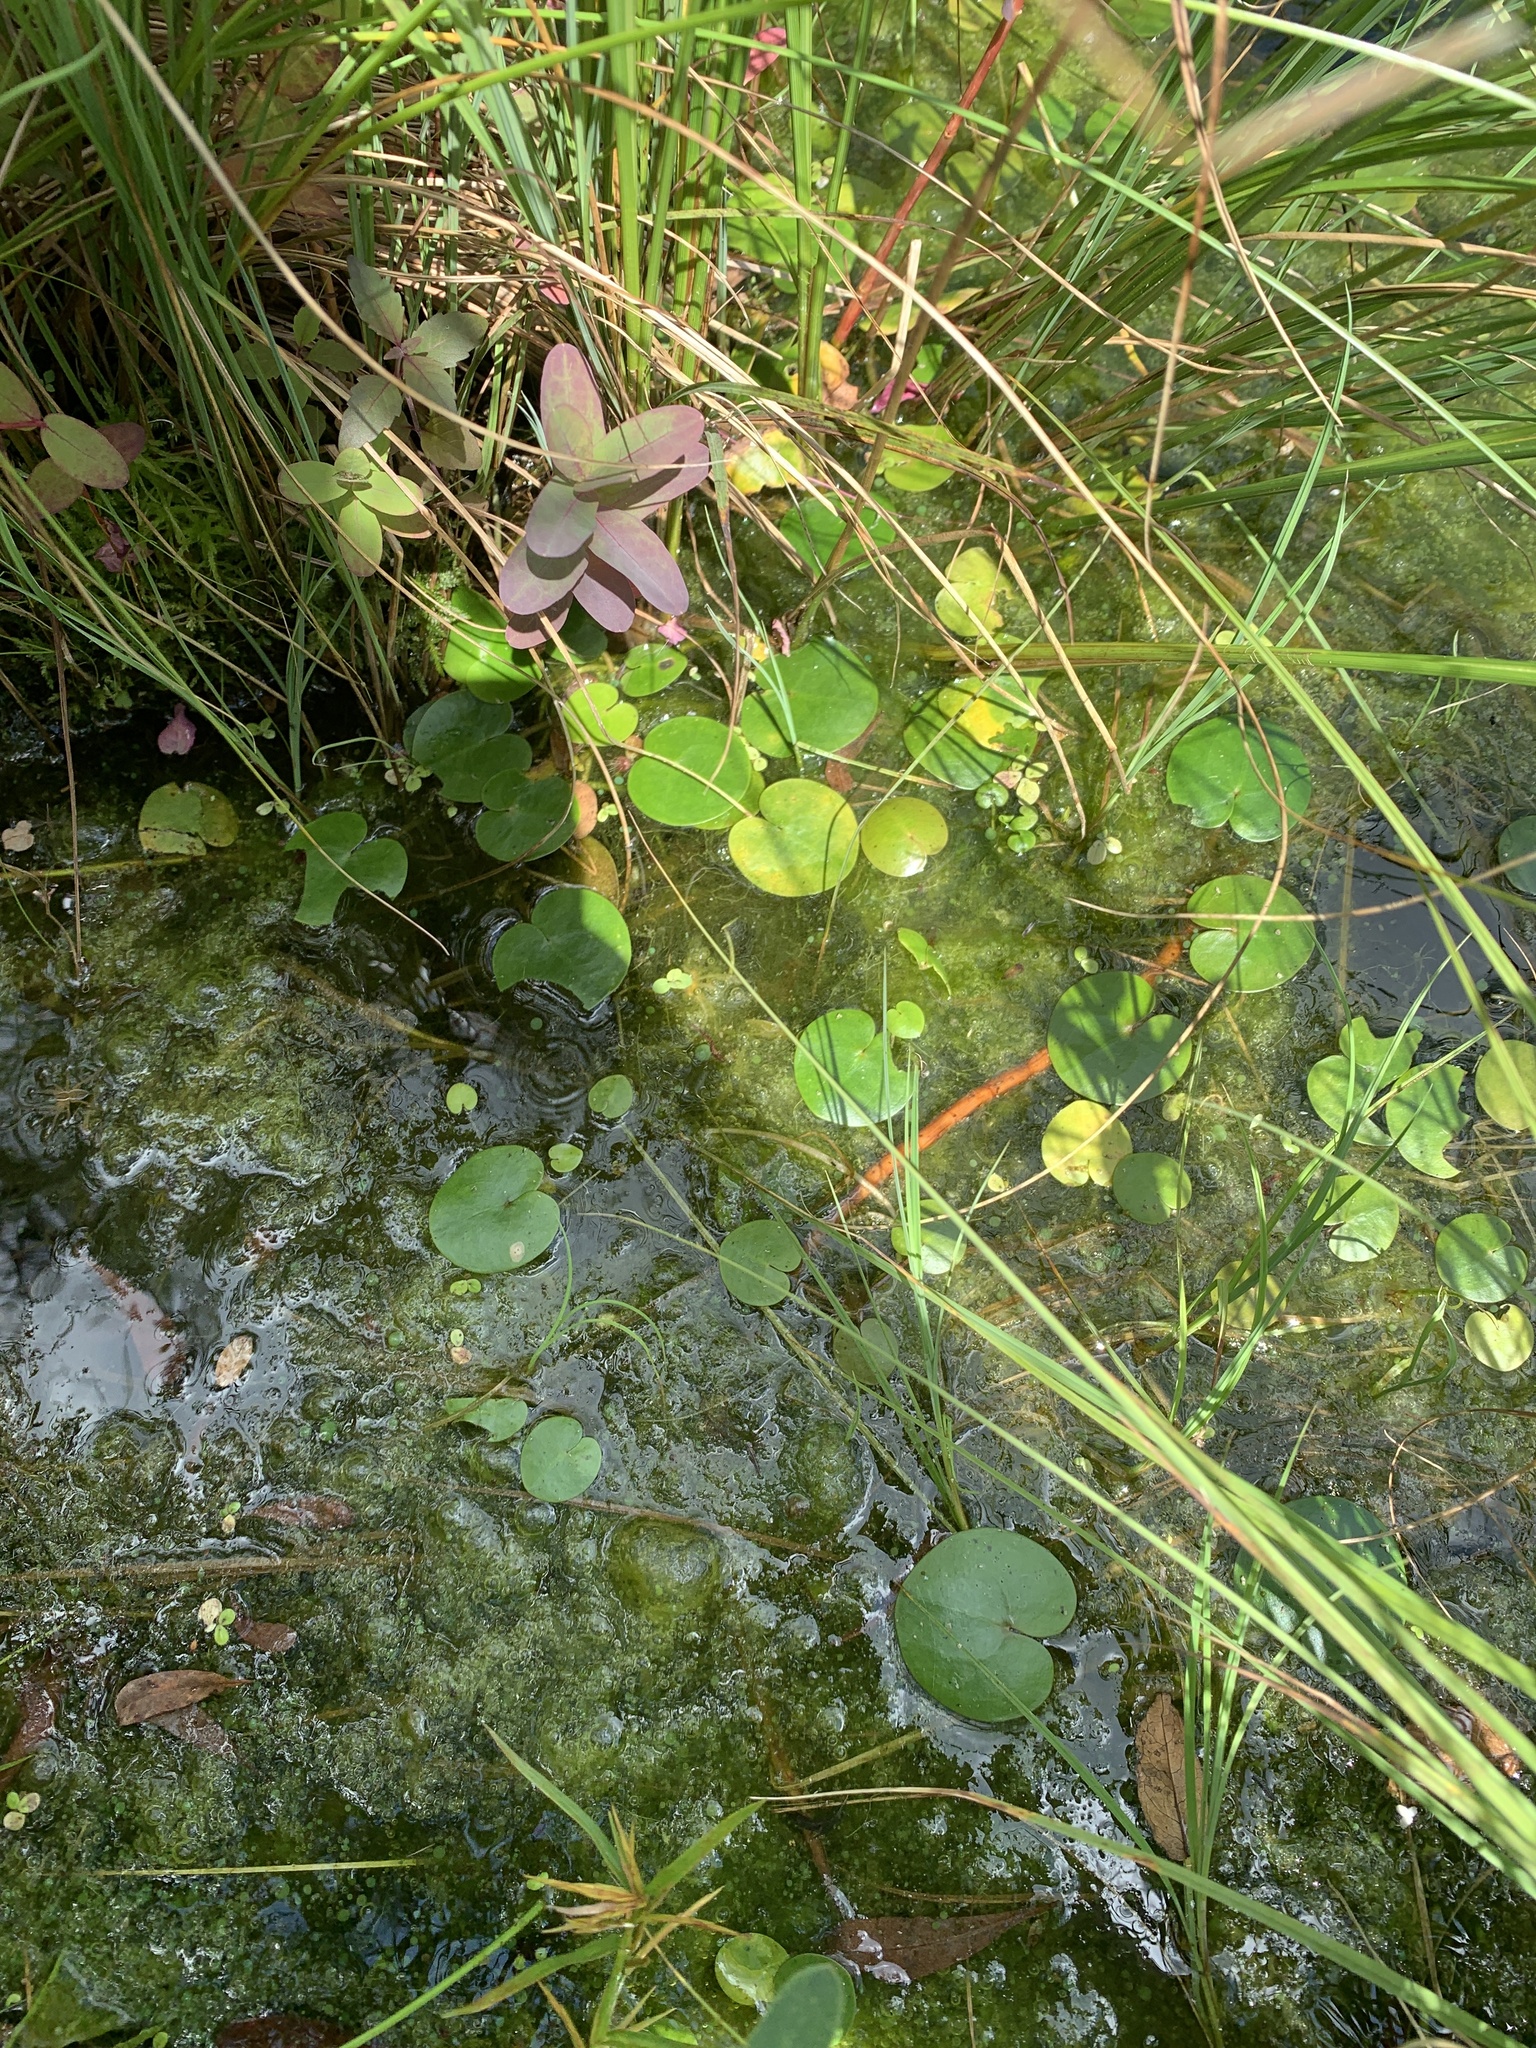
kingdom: Plantae
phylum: Tracheophyta
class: Liliopsida
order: Alismatales
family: Hydrocharitaceae
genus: Hydrocharis
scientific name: Hydrocharis morsus-ranae
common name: Frogbit
